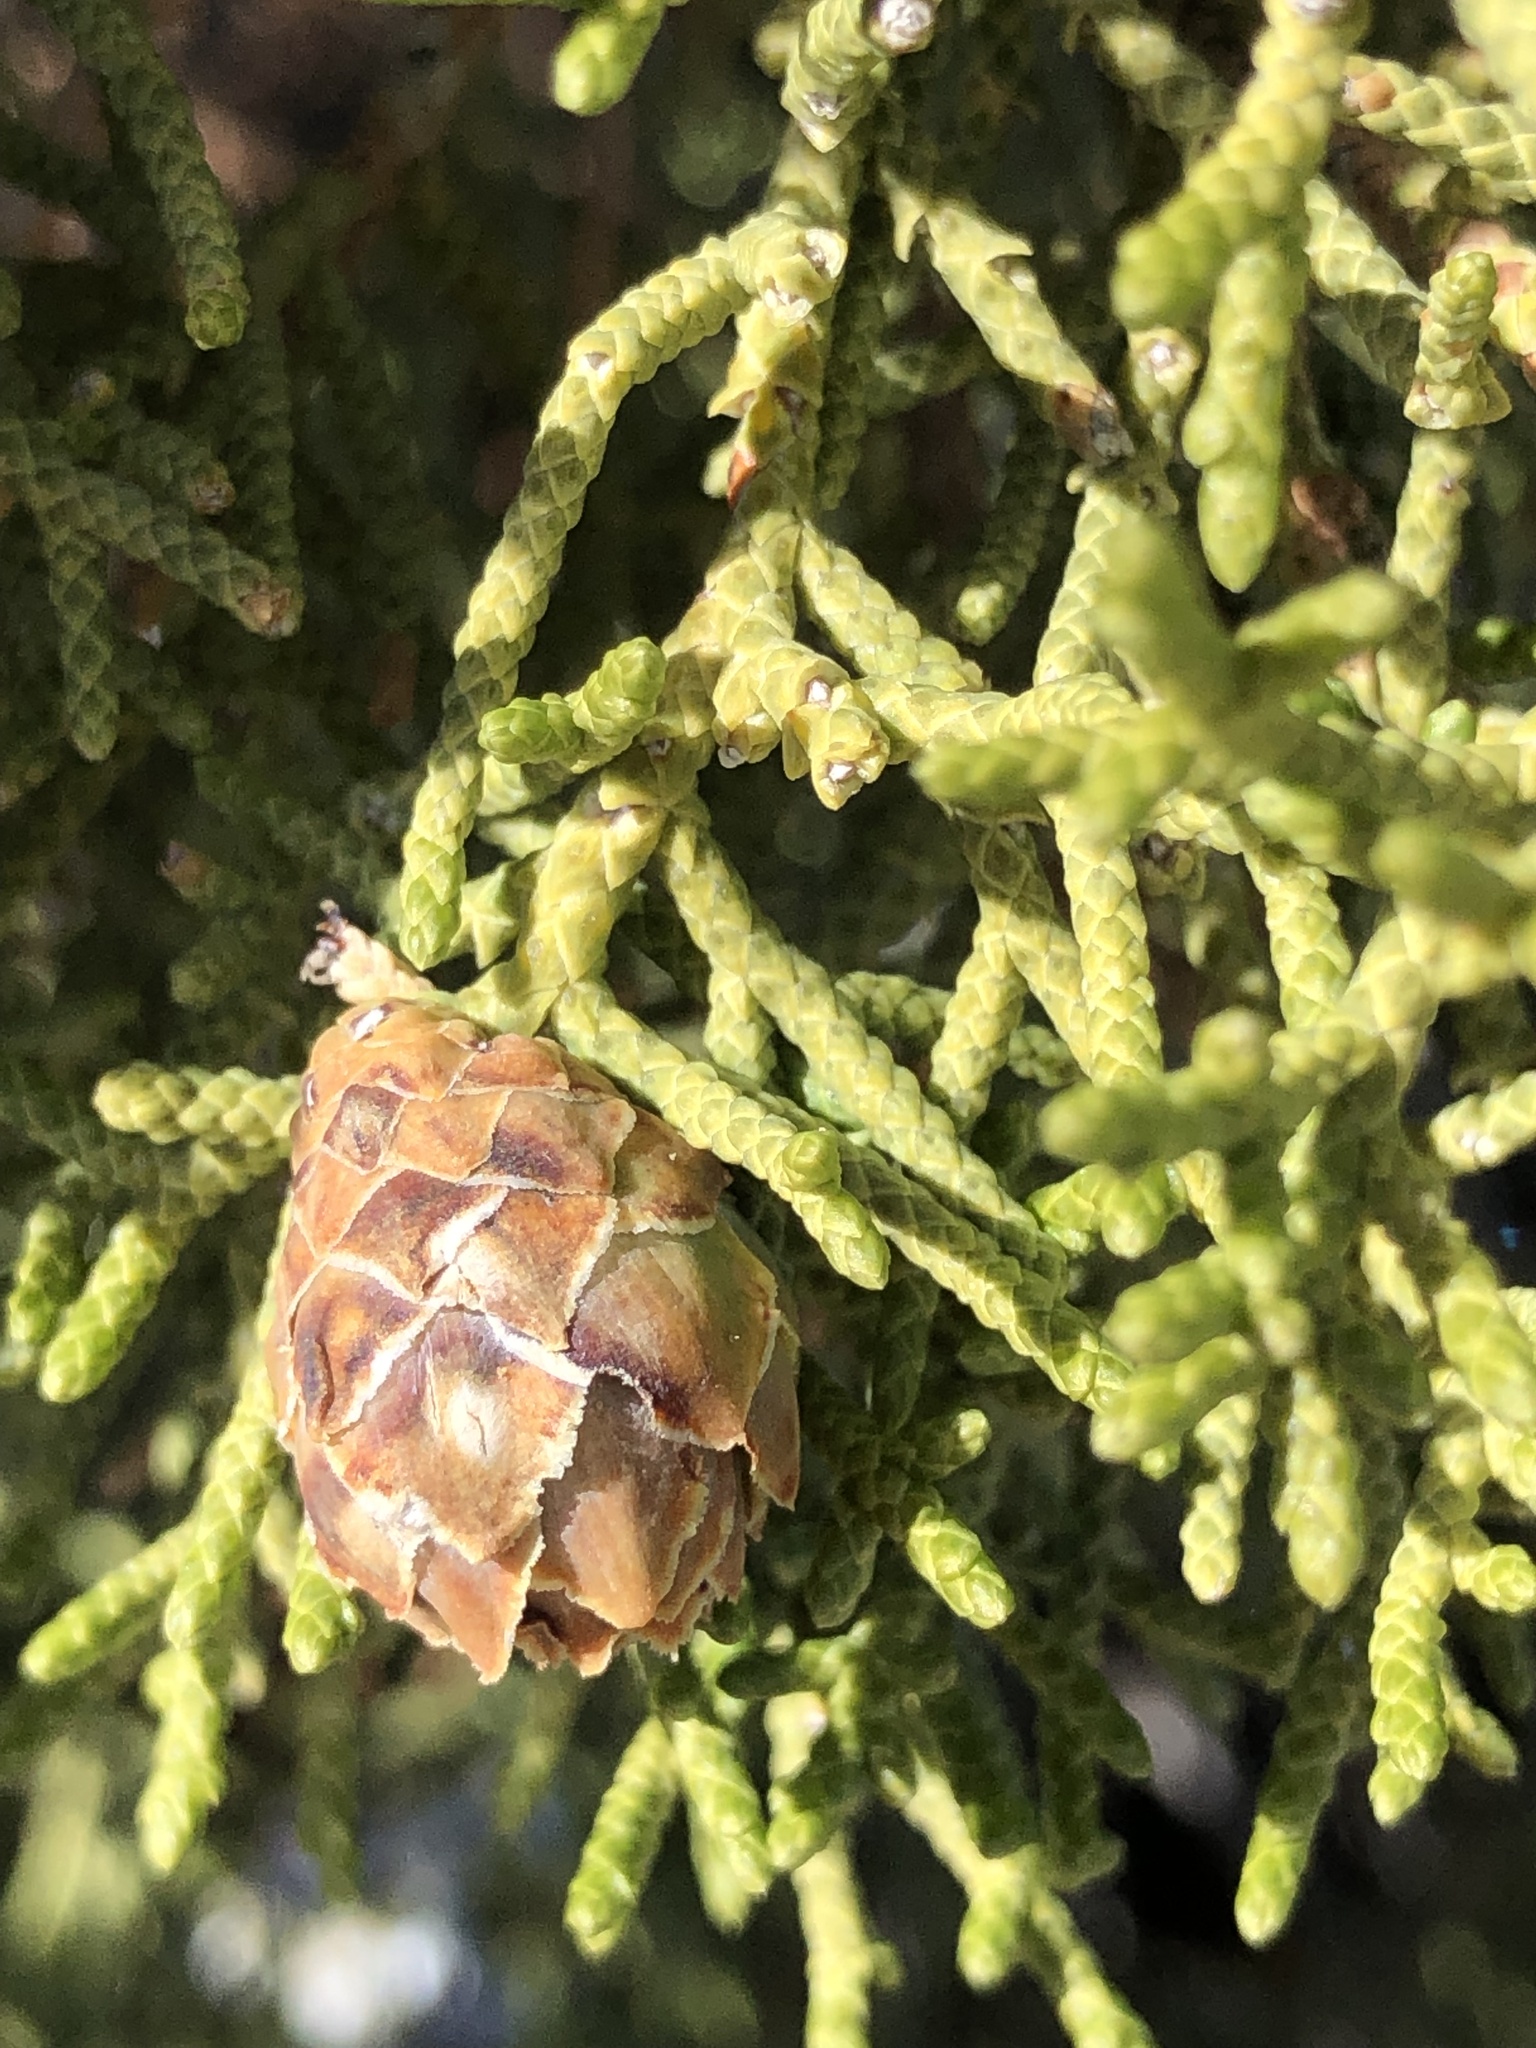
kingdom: Plantae
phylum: Tracheophyta
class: Pinopsida
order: Pinales
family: Cupressaceae
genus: Juniperus
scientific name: Juniperus californica
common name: California juniper
